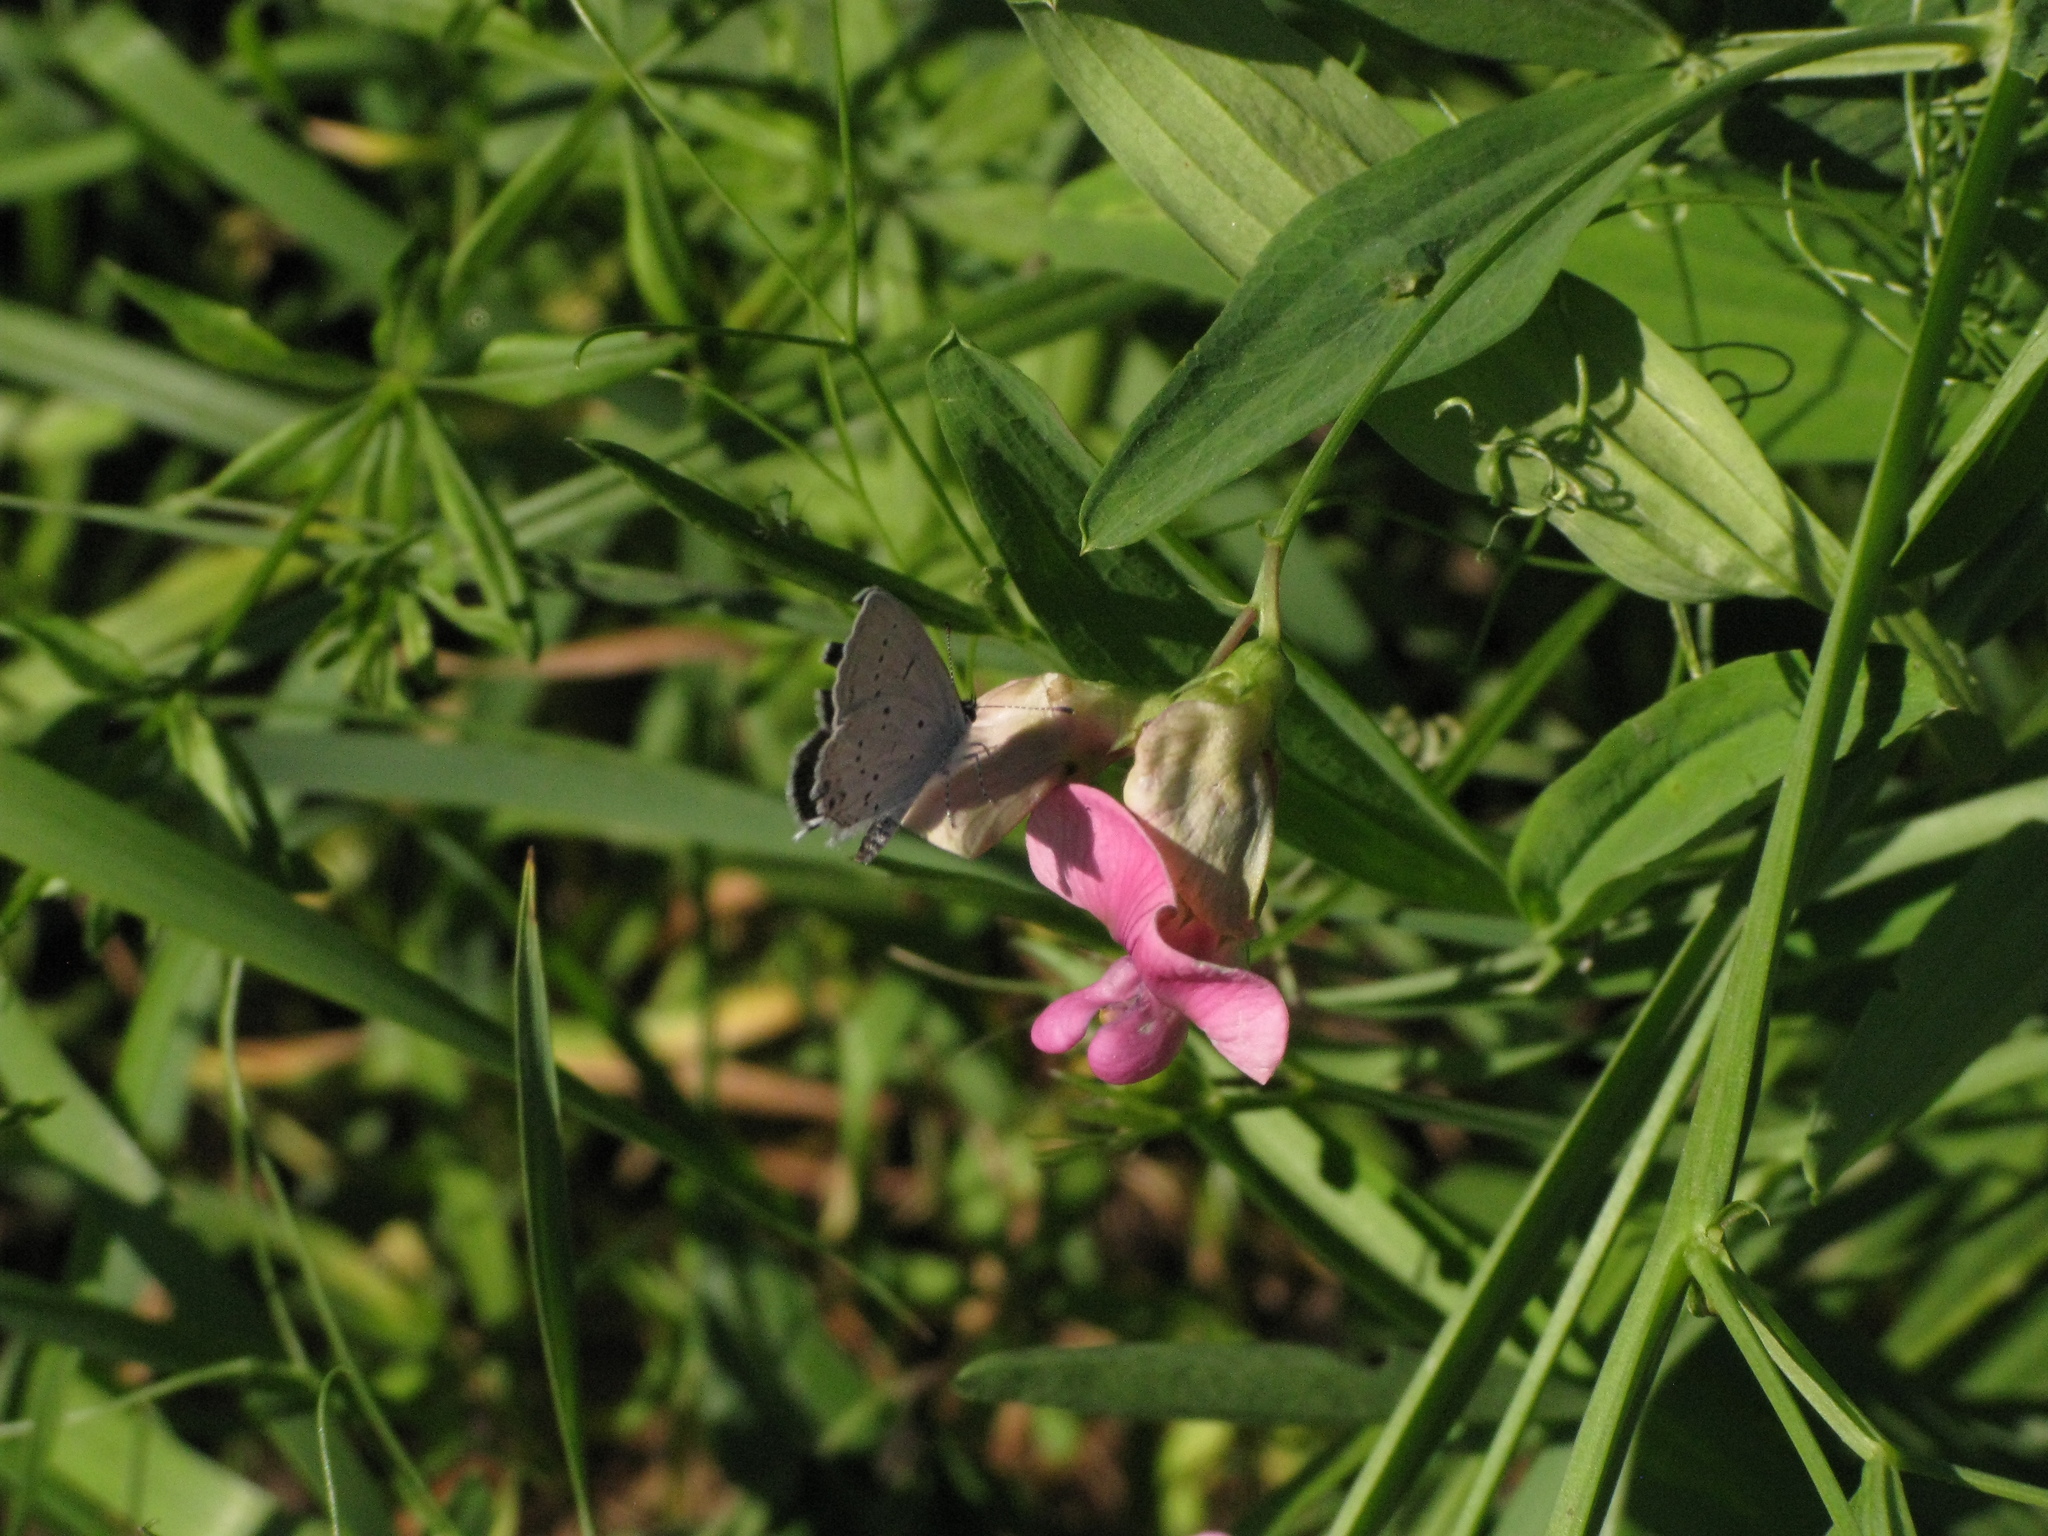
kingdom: Animalia
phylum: Arthropoda
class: Insecta
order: Lepidoptera
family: Lycaenidae
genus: Elkalyce
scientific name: Elkalyce argiades
